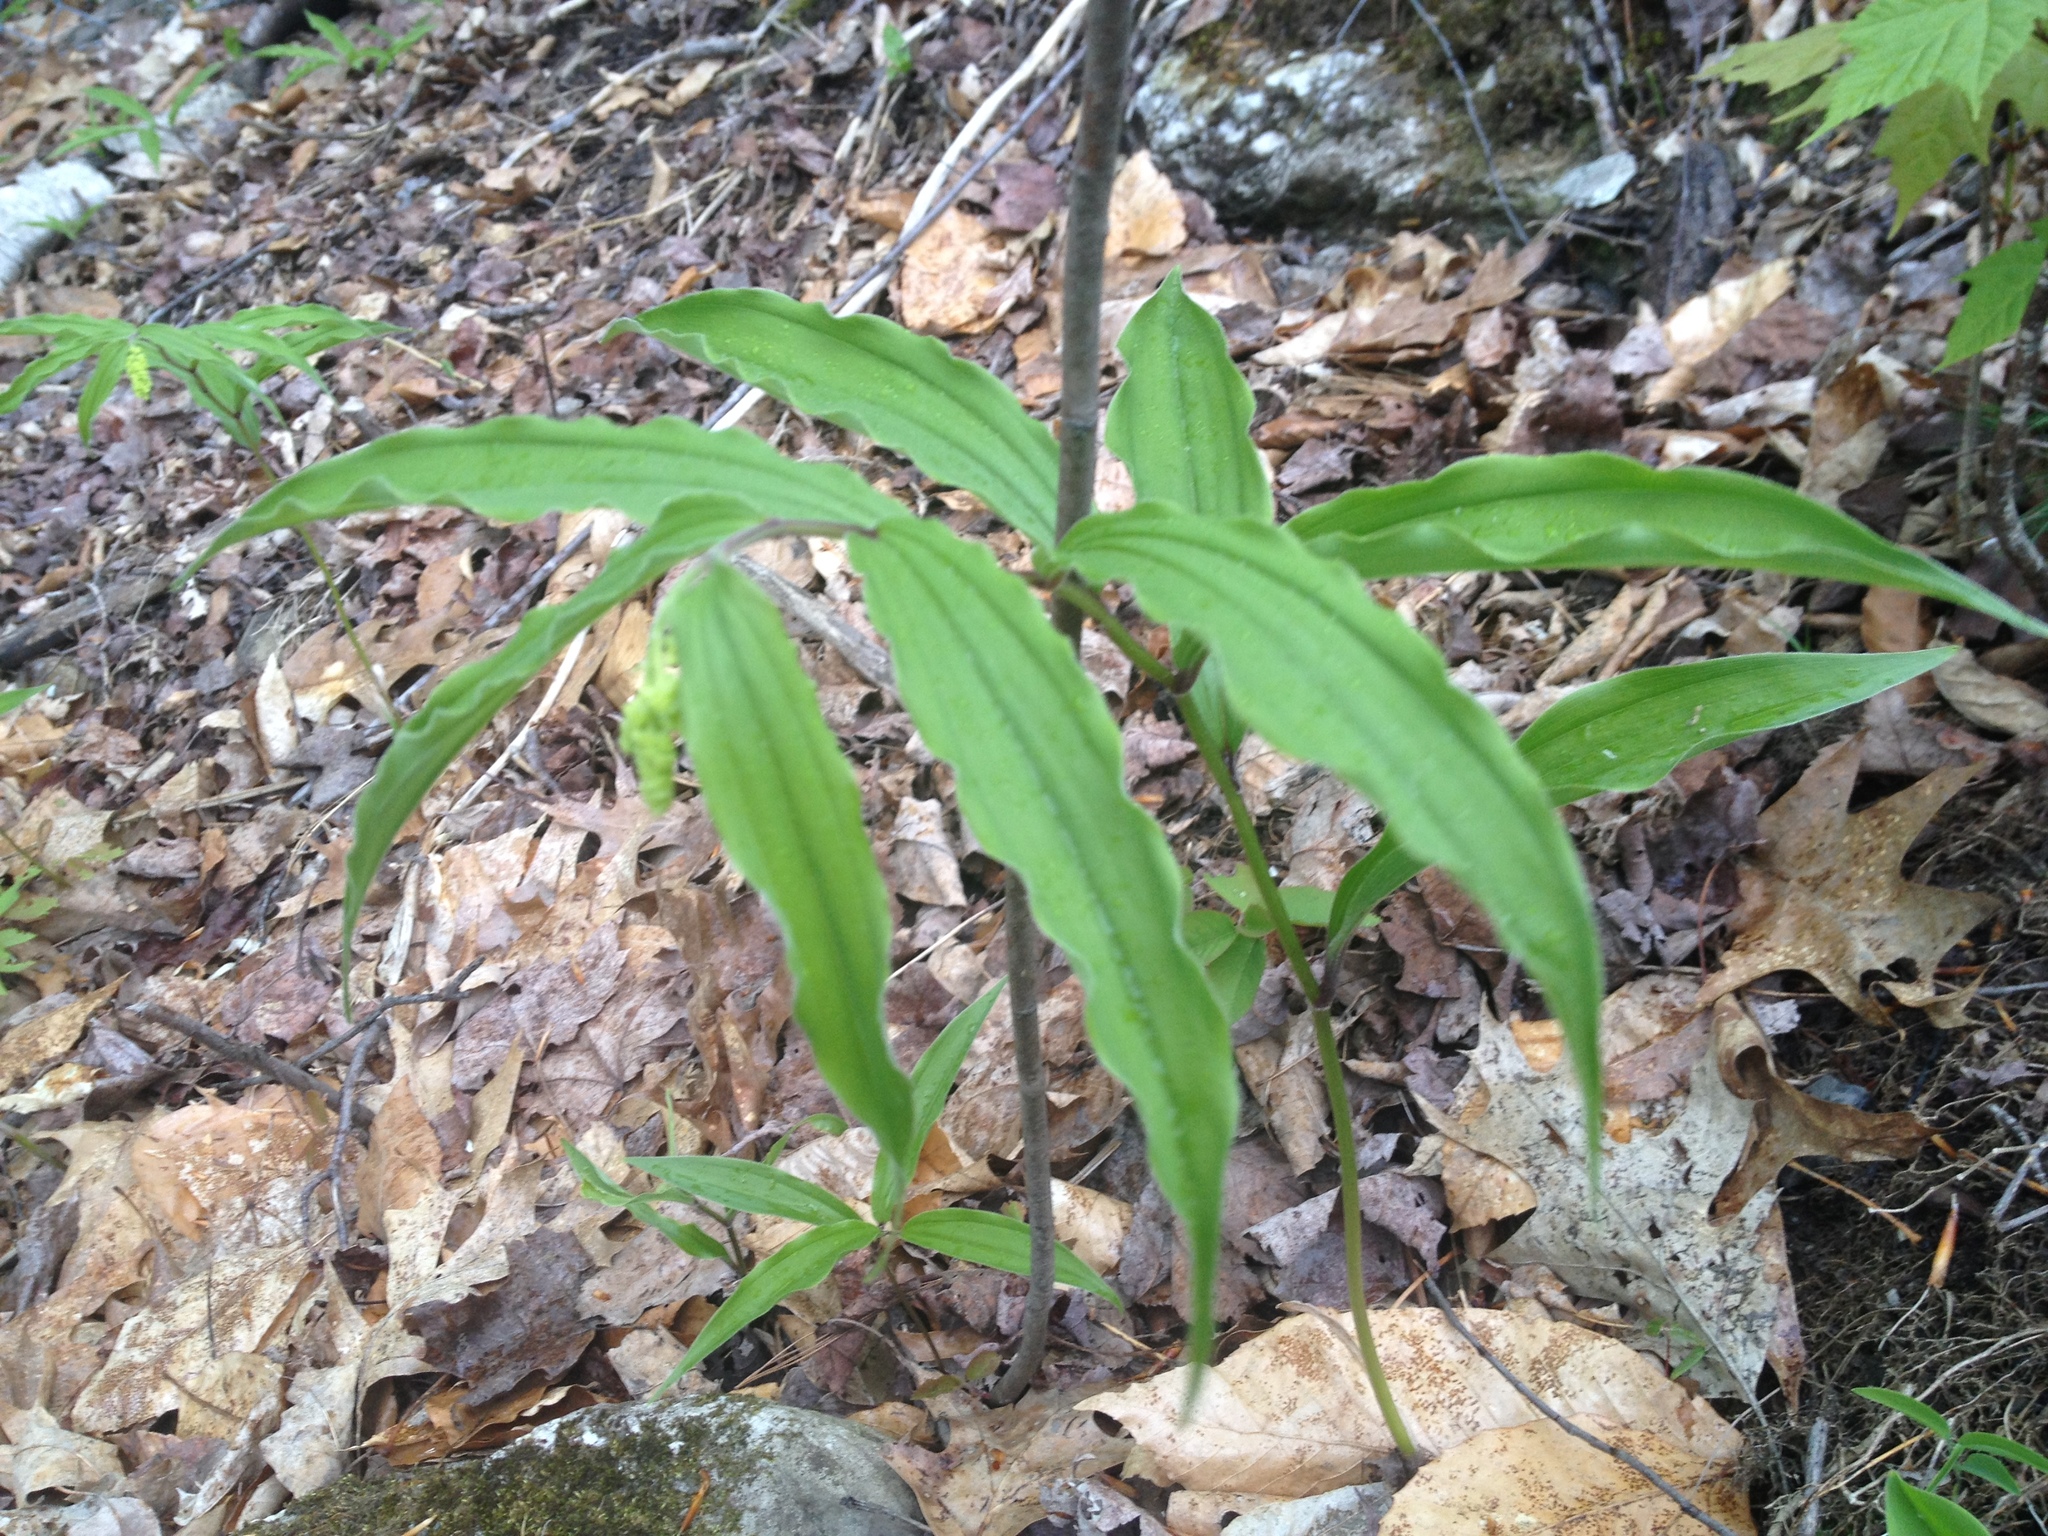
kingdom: Plantae
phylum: Tracheophyta
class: Liliopsida
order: Asparagales
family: Asparagaceae
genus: Maianthemum
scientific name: Maianthemum racemosum
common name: False spikenard
